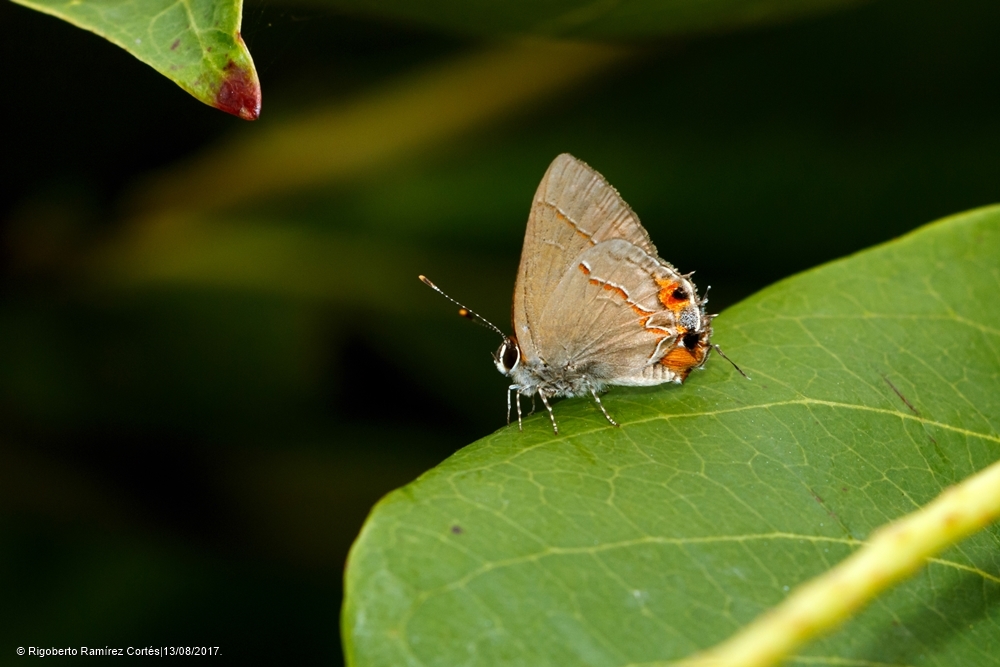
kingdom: Animalia
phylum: Arthropoda
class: Insecta
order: Lepidoptera
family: Lycaenidae
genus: Electrostrymon
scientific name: Electrostrymon endymion
